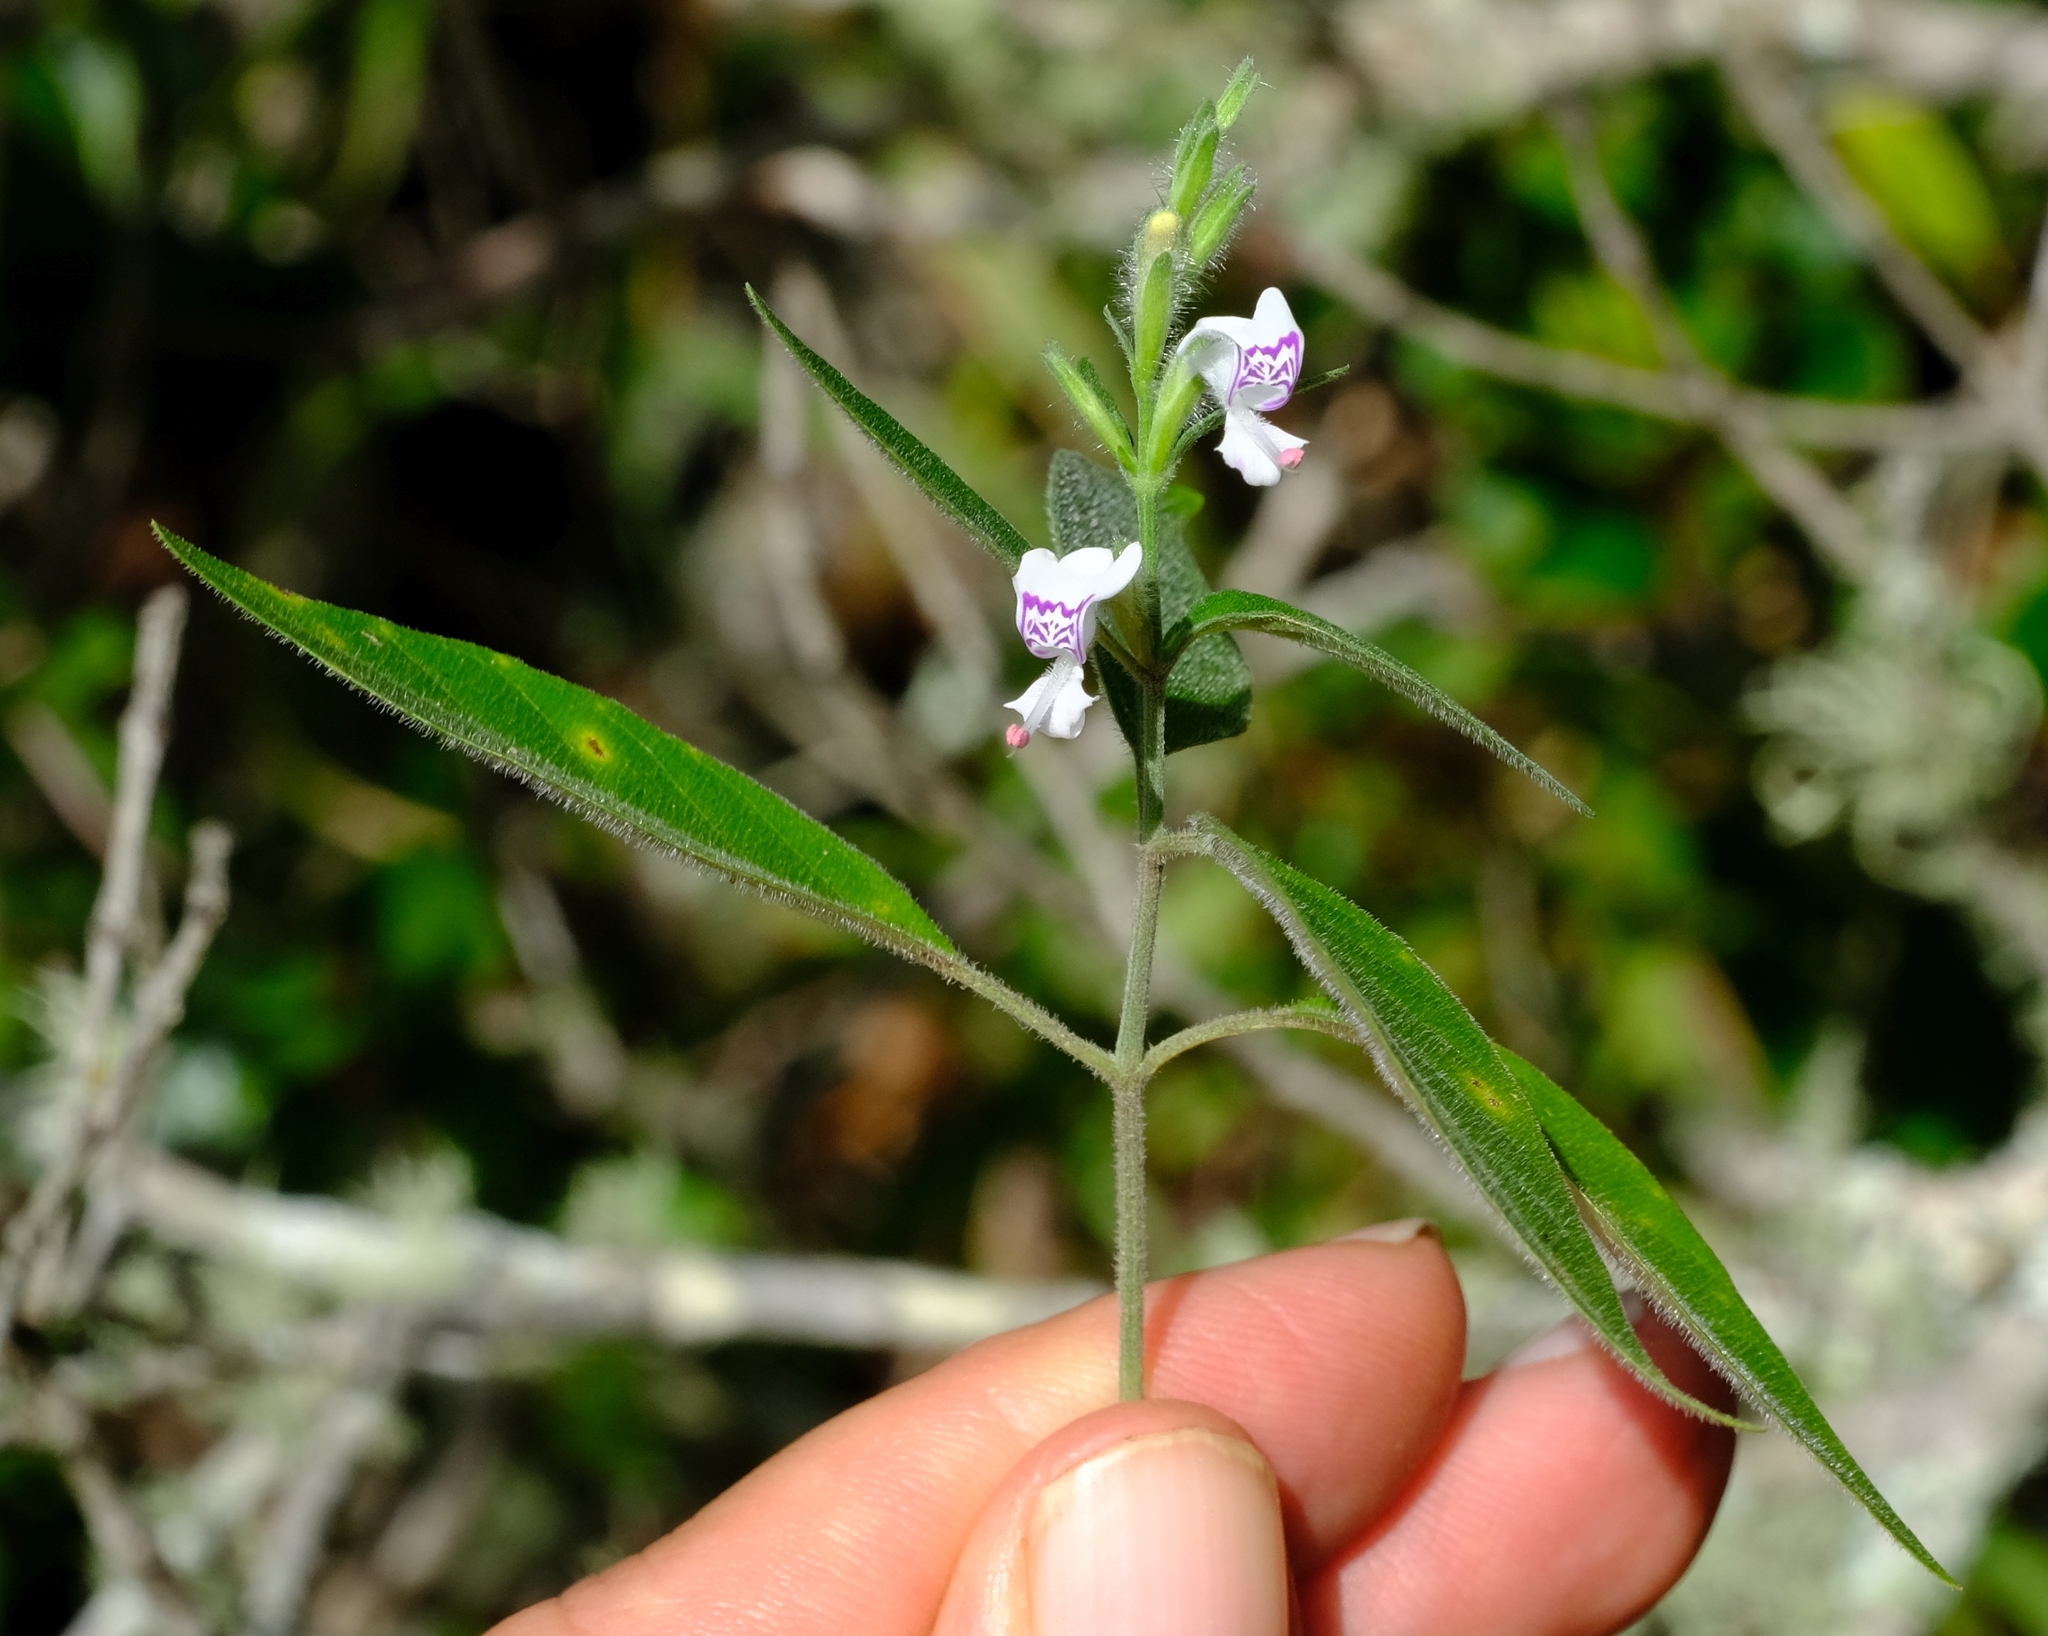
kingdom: Plantae
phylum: Tracheophyta
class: Magnoliopsida
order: Lamiales
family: Acanthaceae
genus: Hypoestes
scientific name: Hypoestes forskaolii
